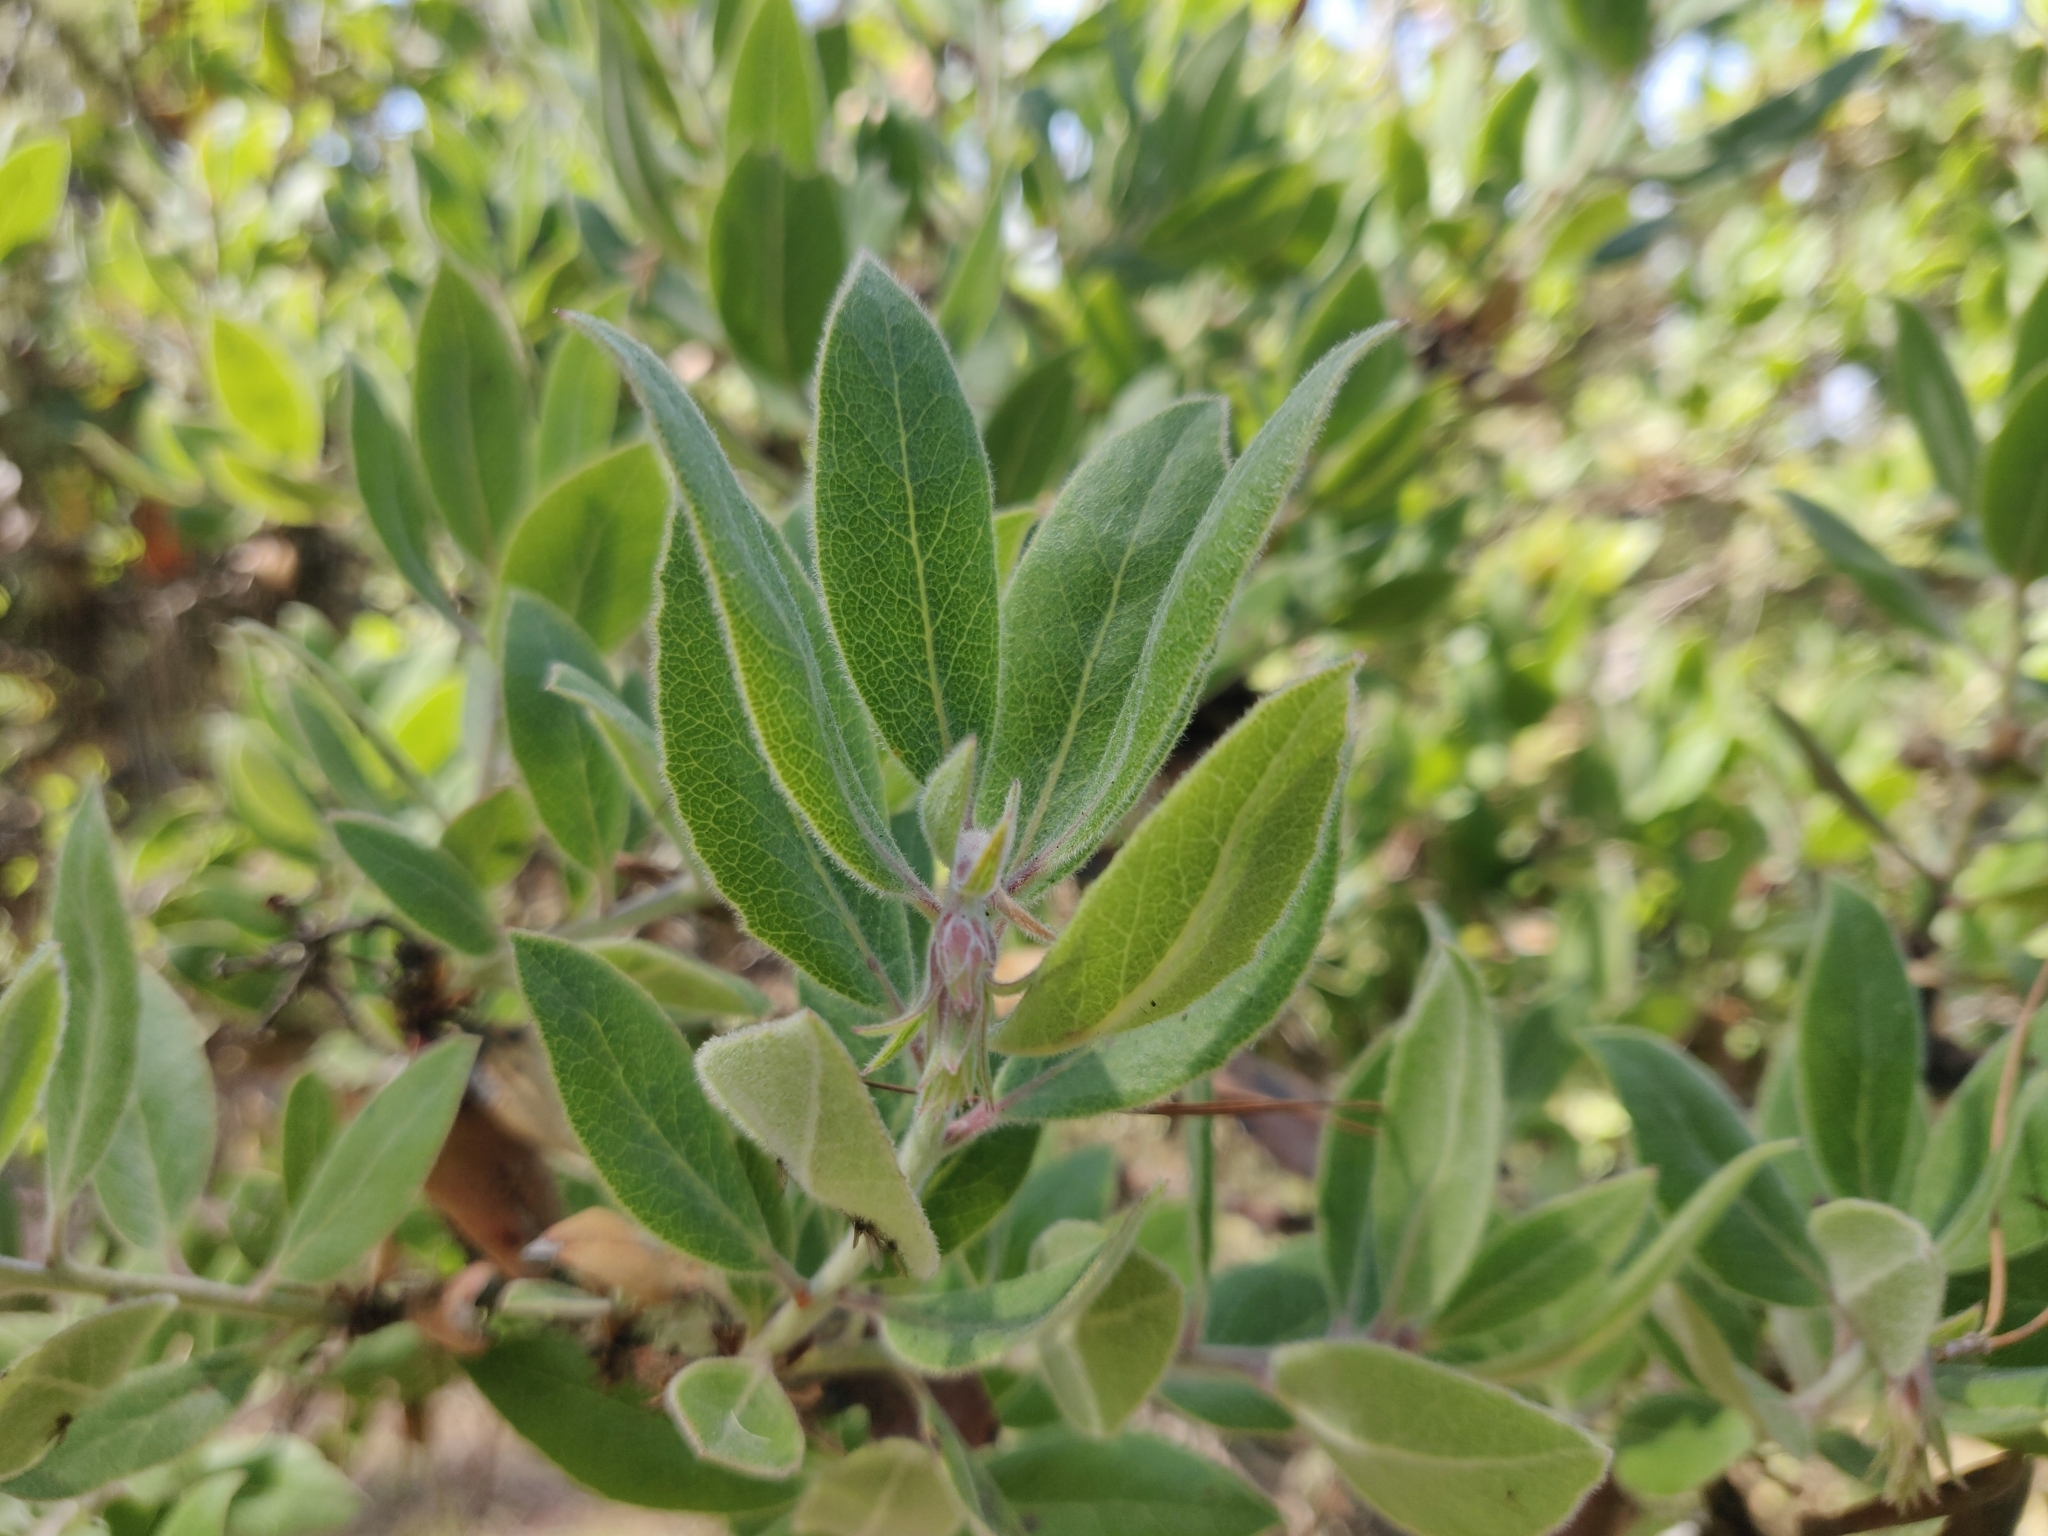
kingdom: Plantae
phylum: Tracheophyta
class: Magnoliopsida
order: Ericales
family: Ericaceae
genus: Arctostaphylos
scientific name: Arctostaphylos tomentosa
